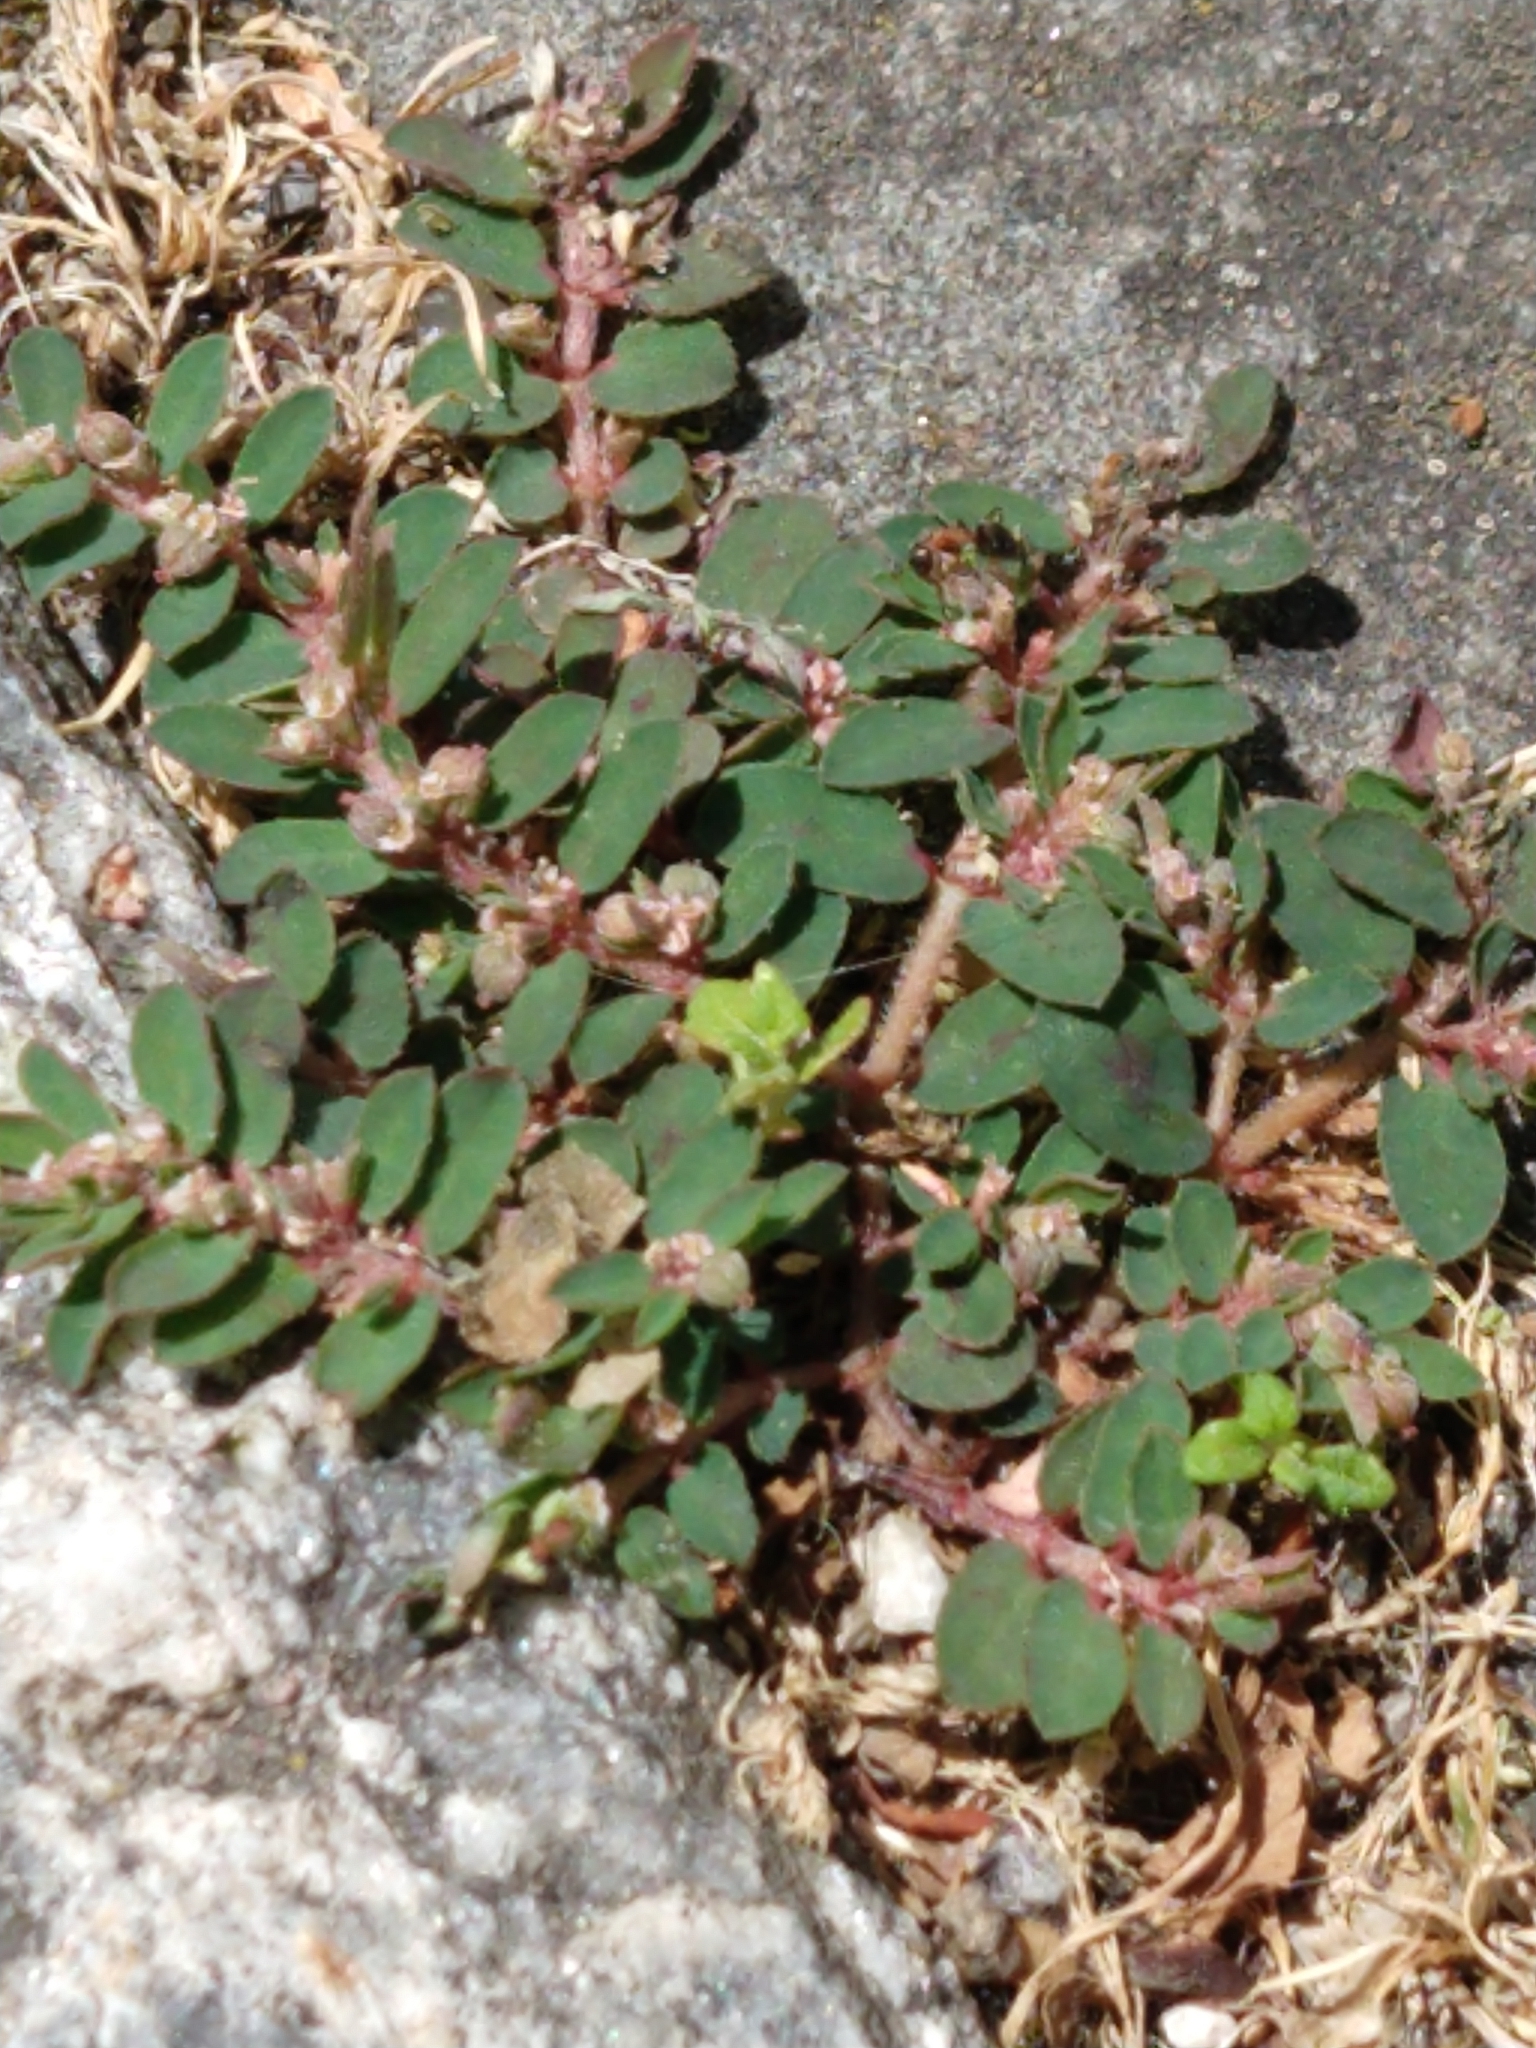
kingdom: Plantae
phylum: Tracheophyta
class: Magnoliopsida
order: Malpighiales
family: Euphorbiaceae
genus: Euphorbia
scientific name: Euphorbia maculata
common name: Spotted spurge
